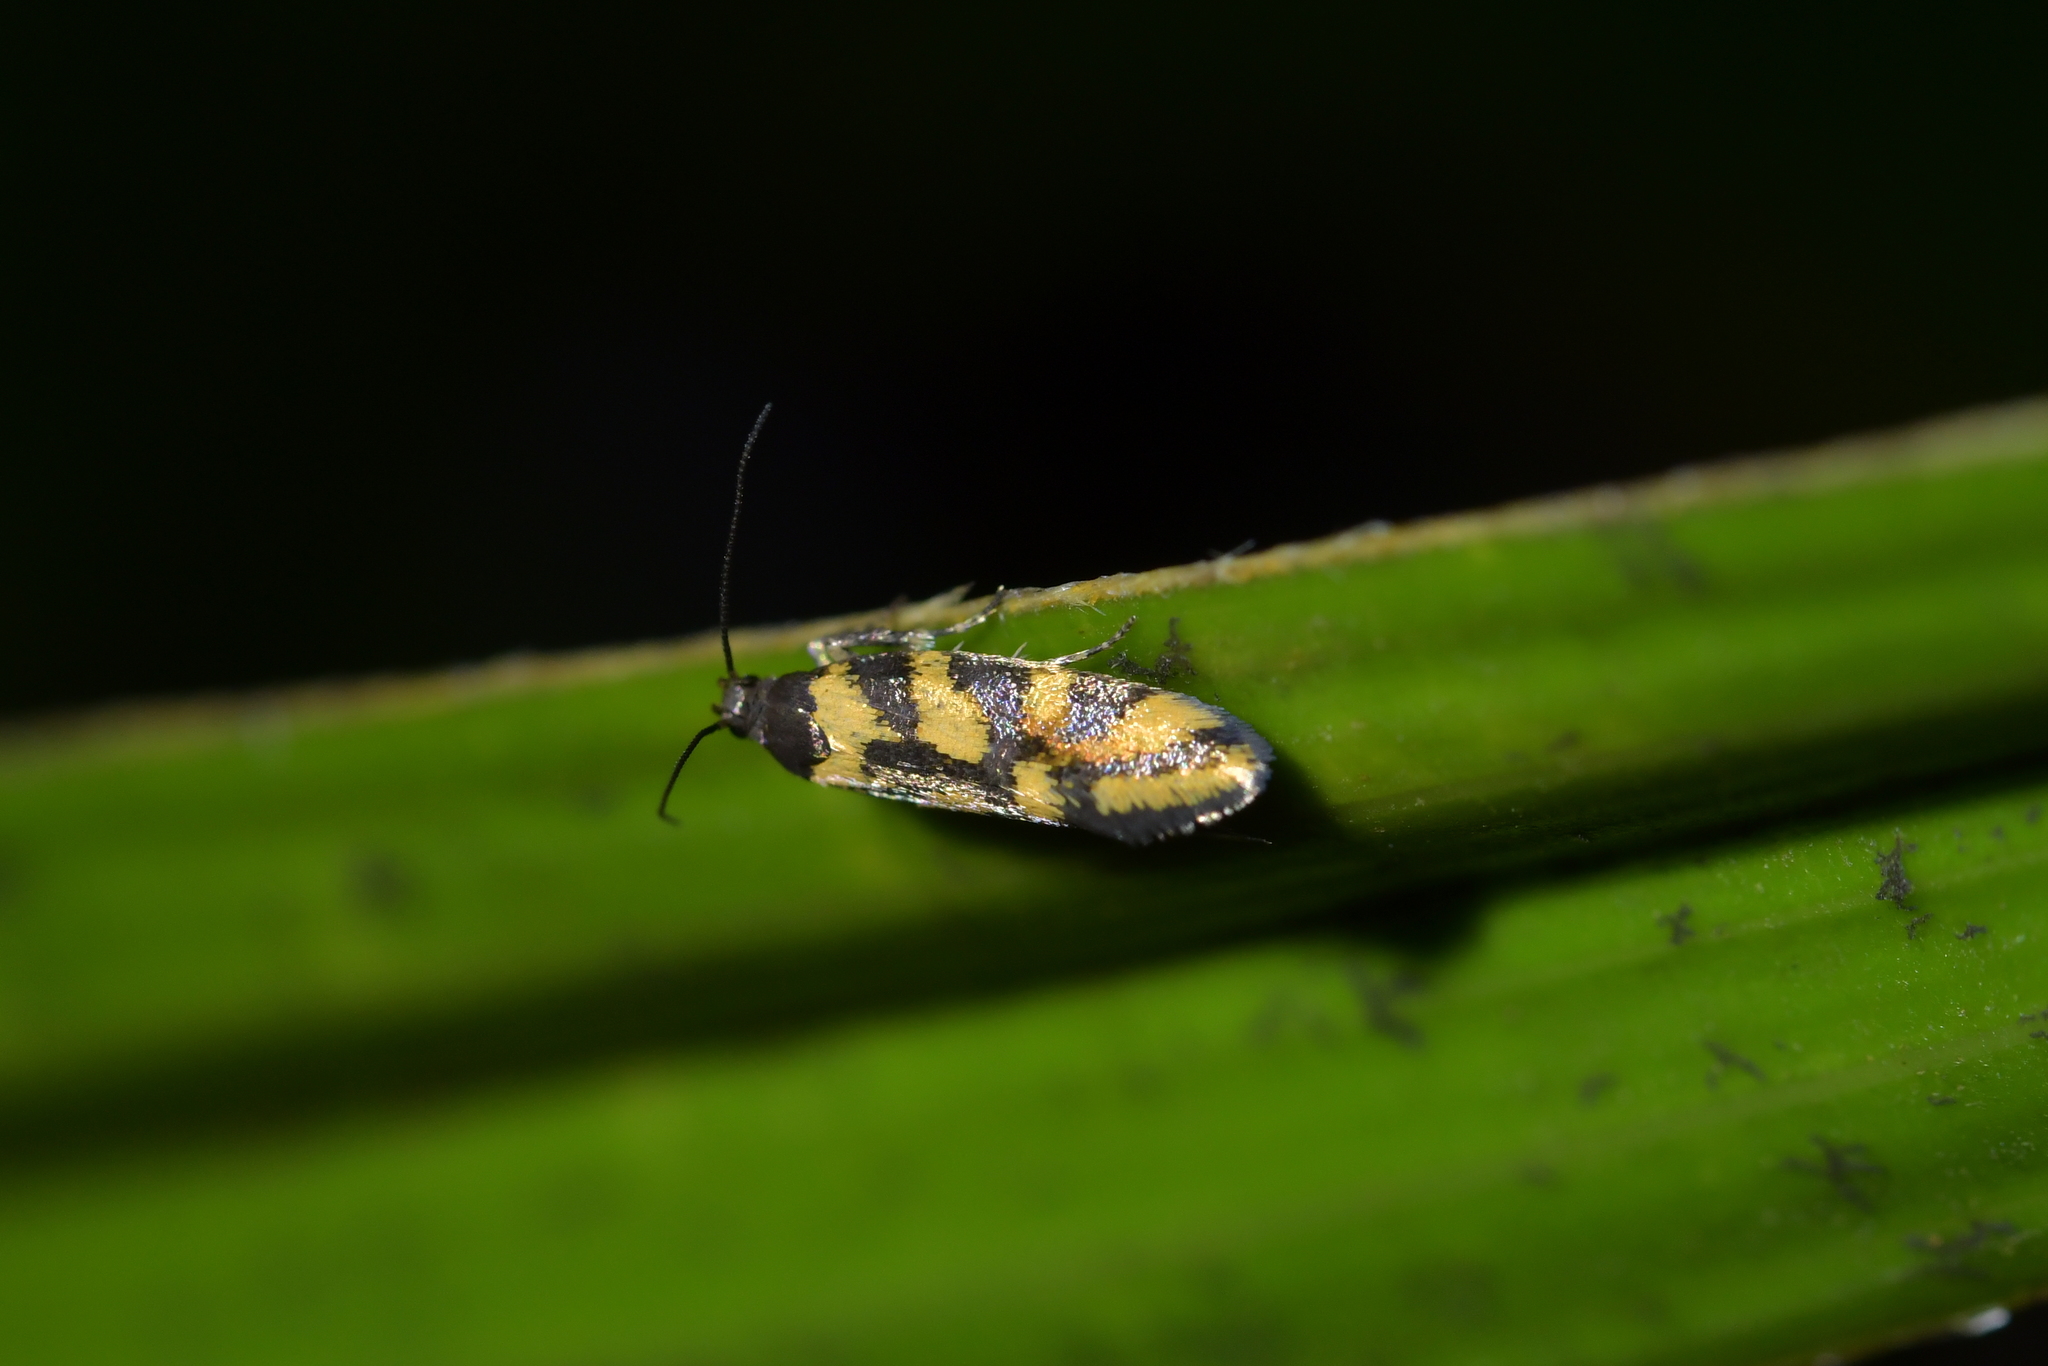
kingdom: Animalia
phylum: Arthropoda
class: Insecta
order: Lepidoptera
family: Oecophoridae
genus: Tingena
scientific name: Tingena compsogramma
